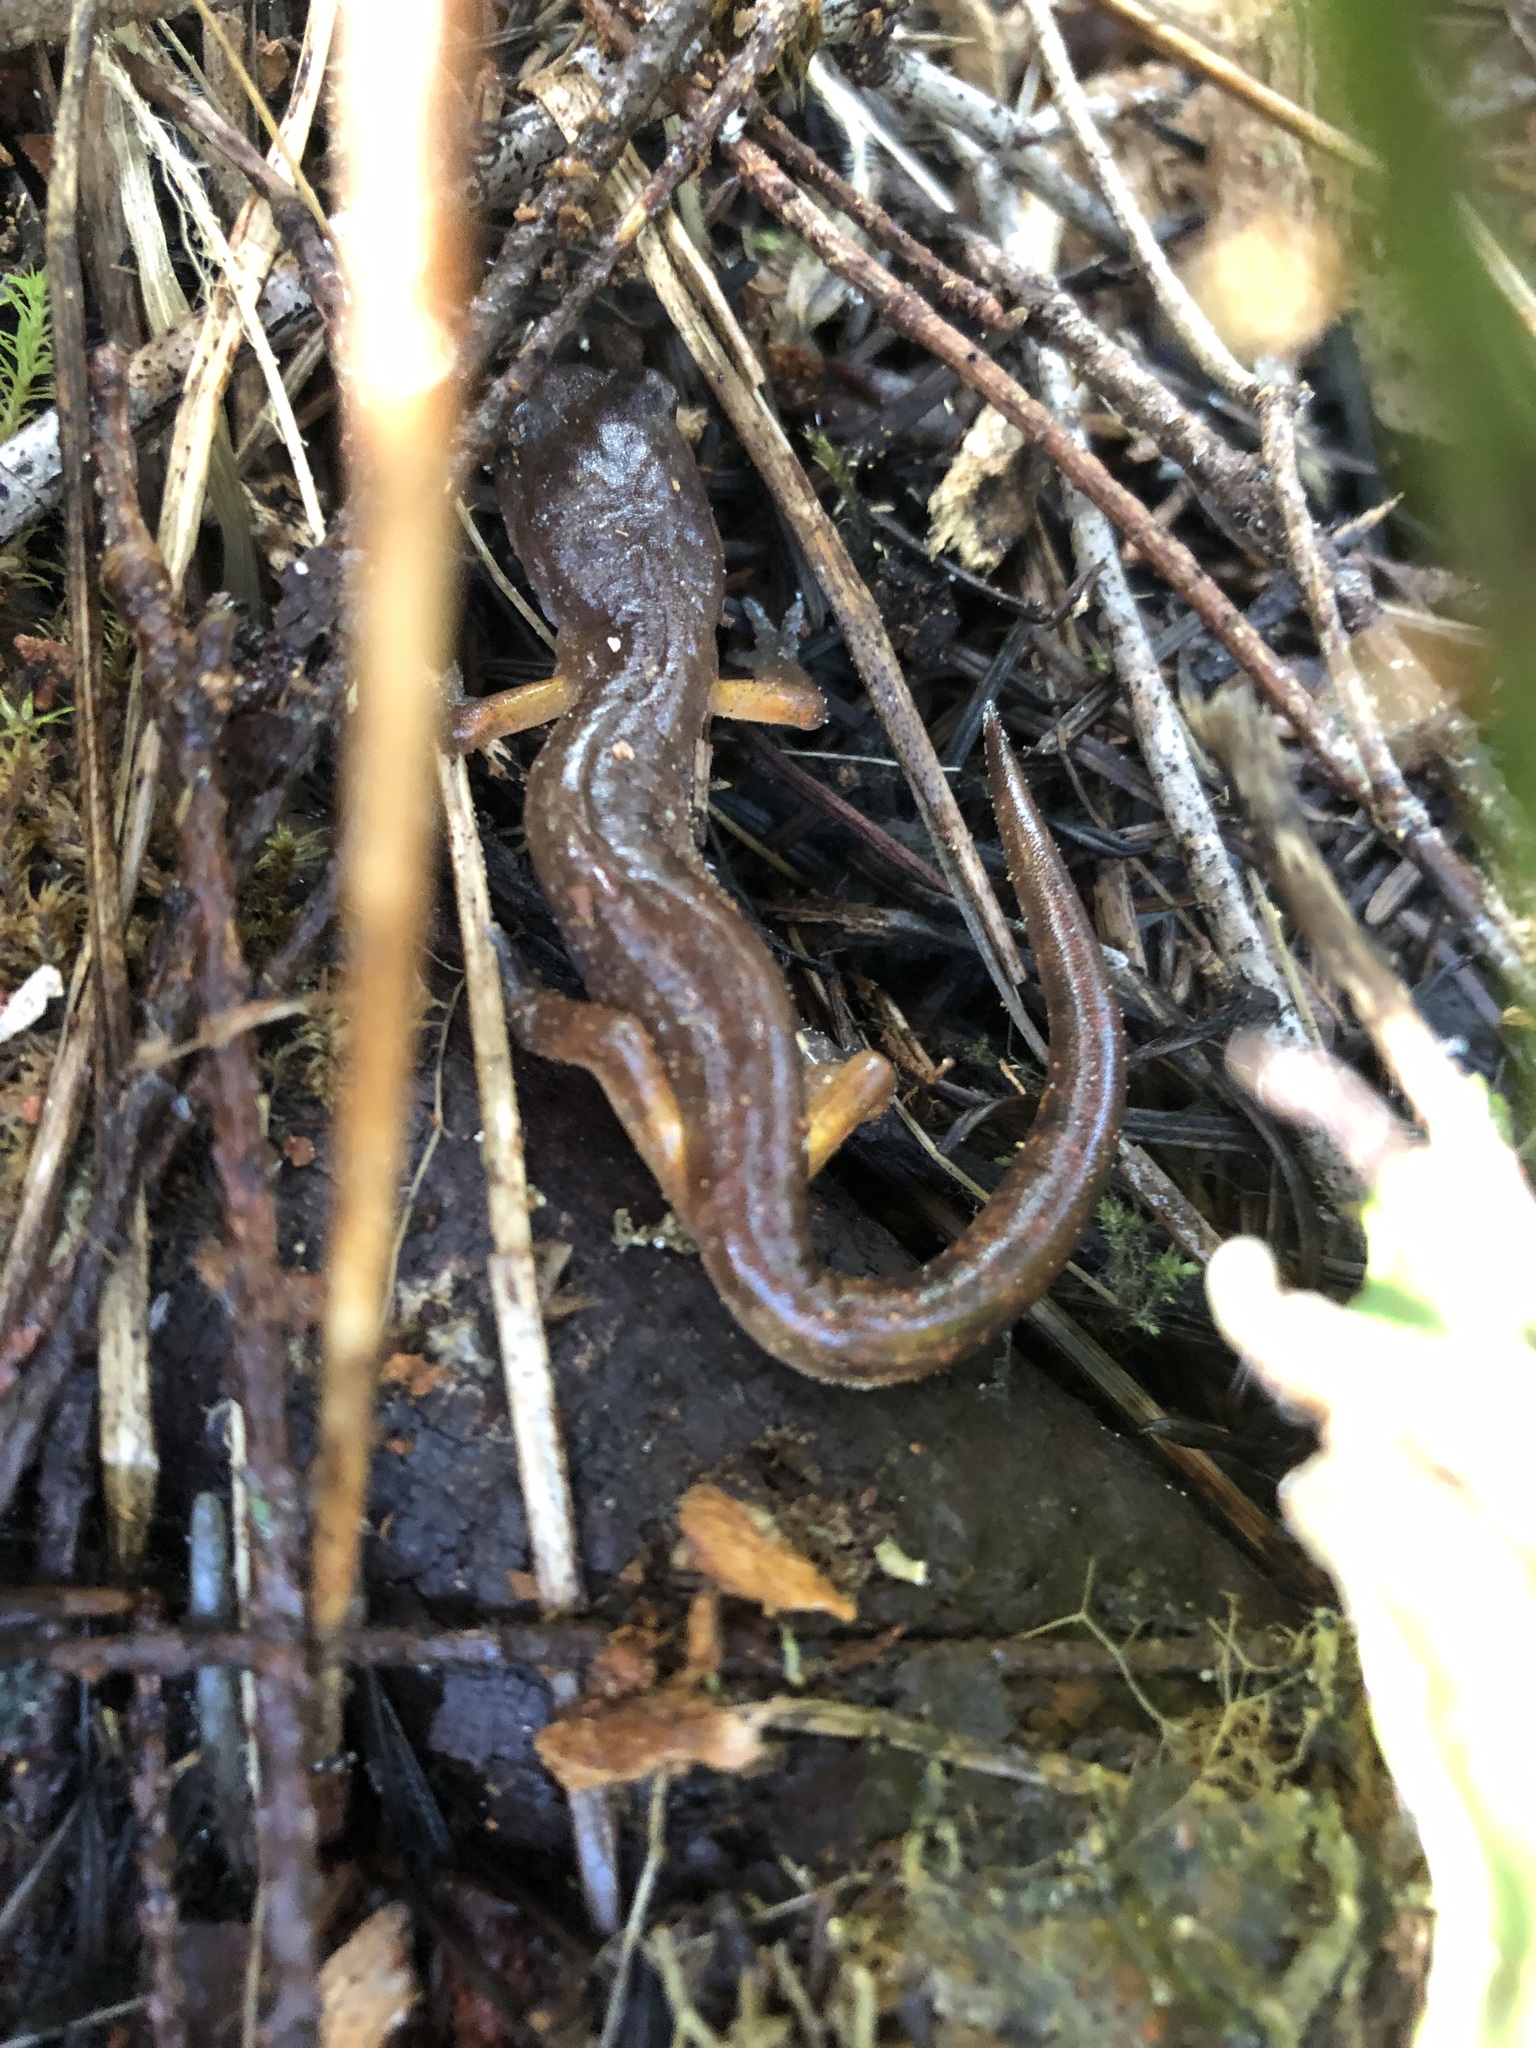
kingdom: Animalia
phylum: Chordata
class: Amphibia
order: Caudata
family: Plethodontidae
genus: Ensatina
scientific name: Ensatina eschscholtzii
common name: Ensatina
